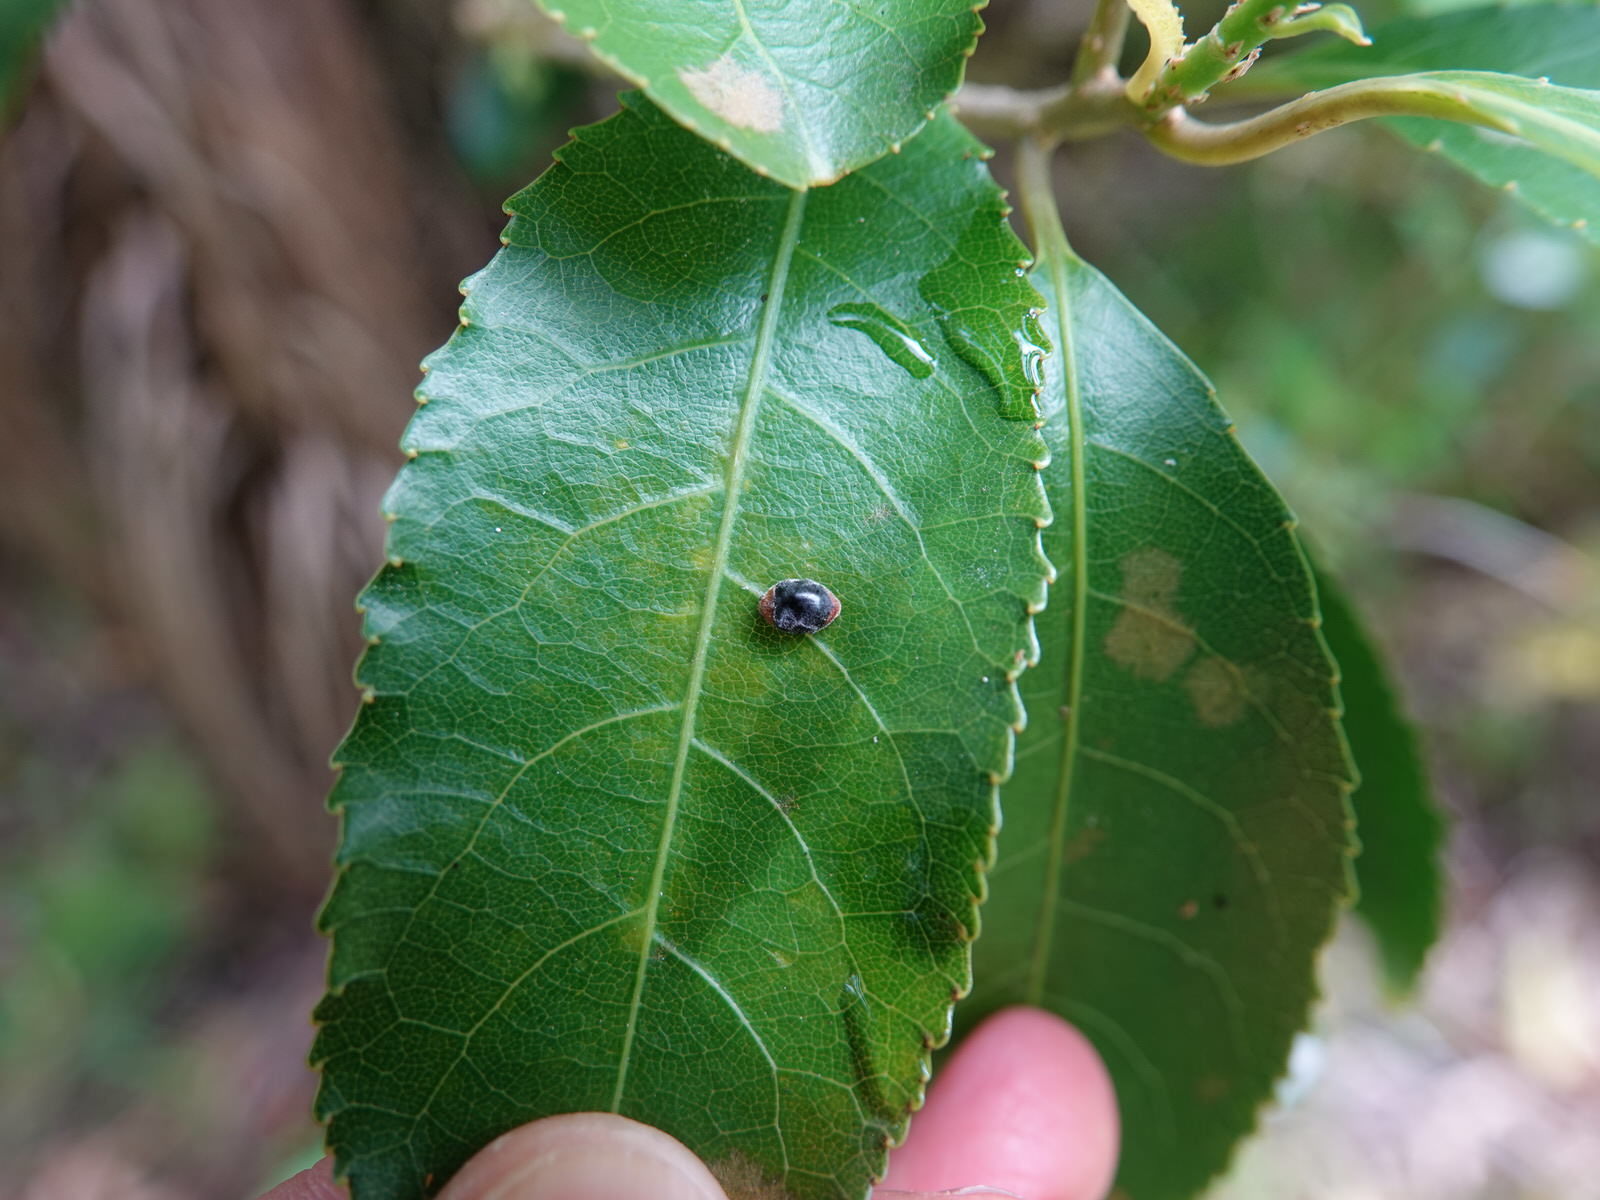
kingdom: Animalia
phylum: Arthropoda
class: Insecta
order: Coleoptera
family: Coccinellidae
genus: Cryptolaemus
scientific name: Cryptolaemus montrouzieri
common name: Mealybug destroyer
